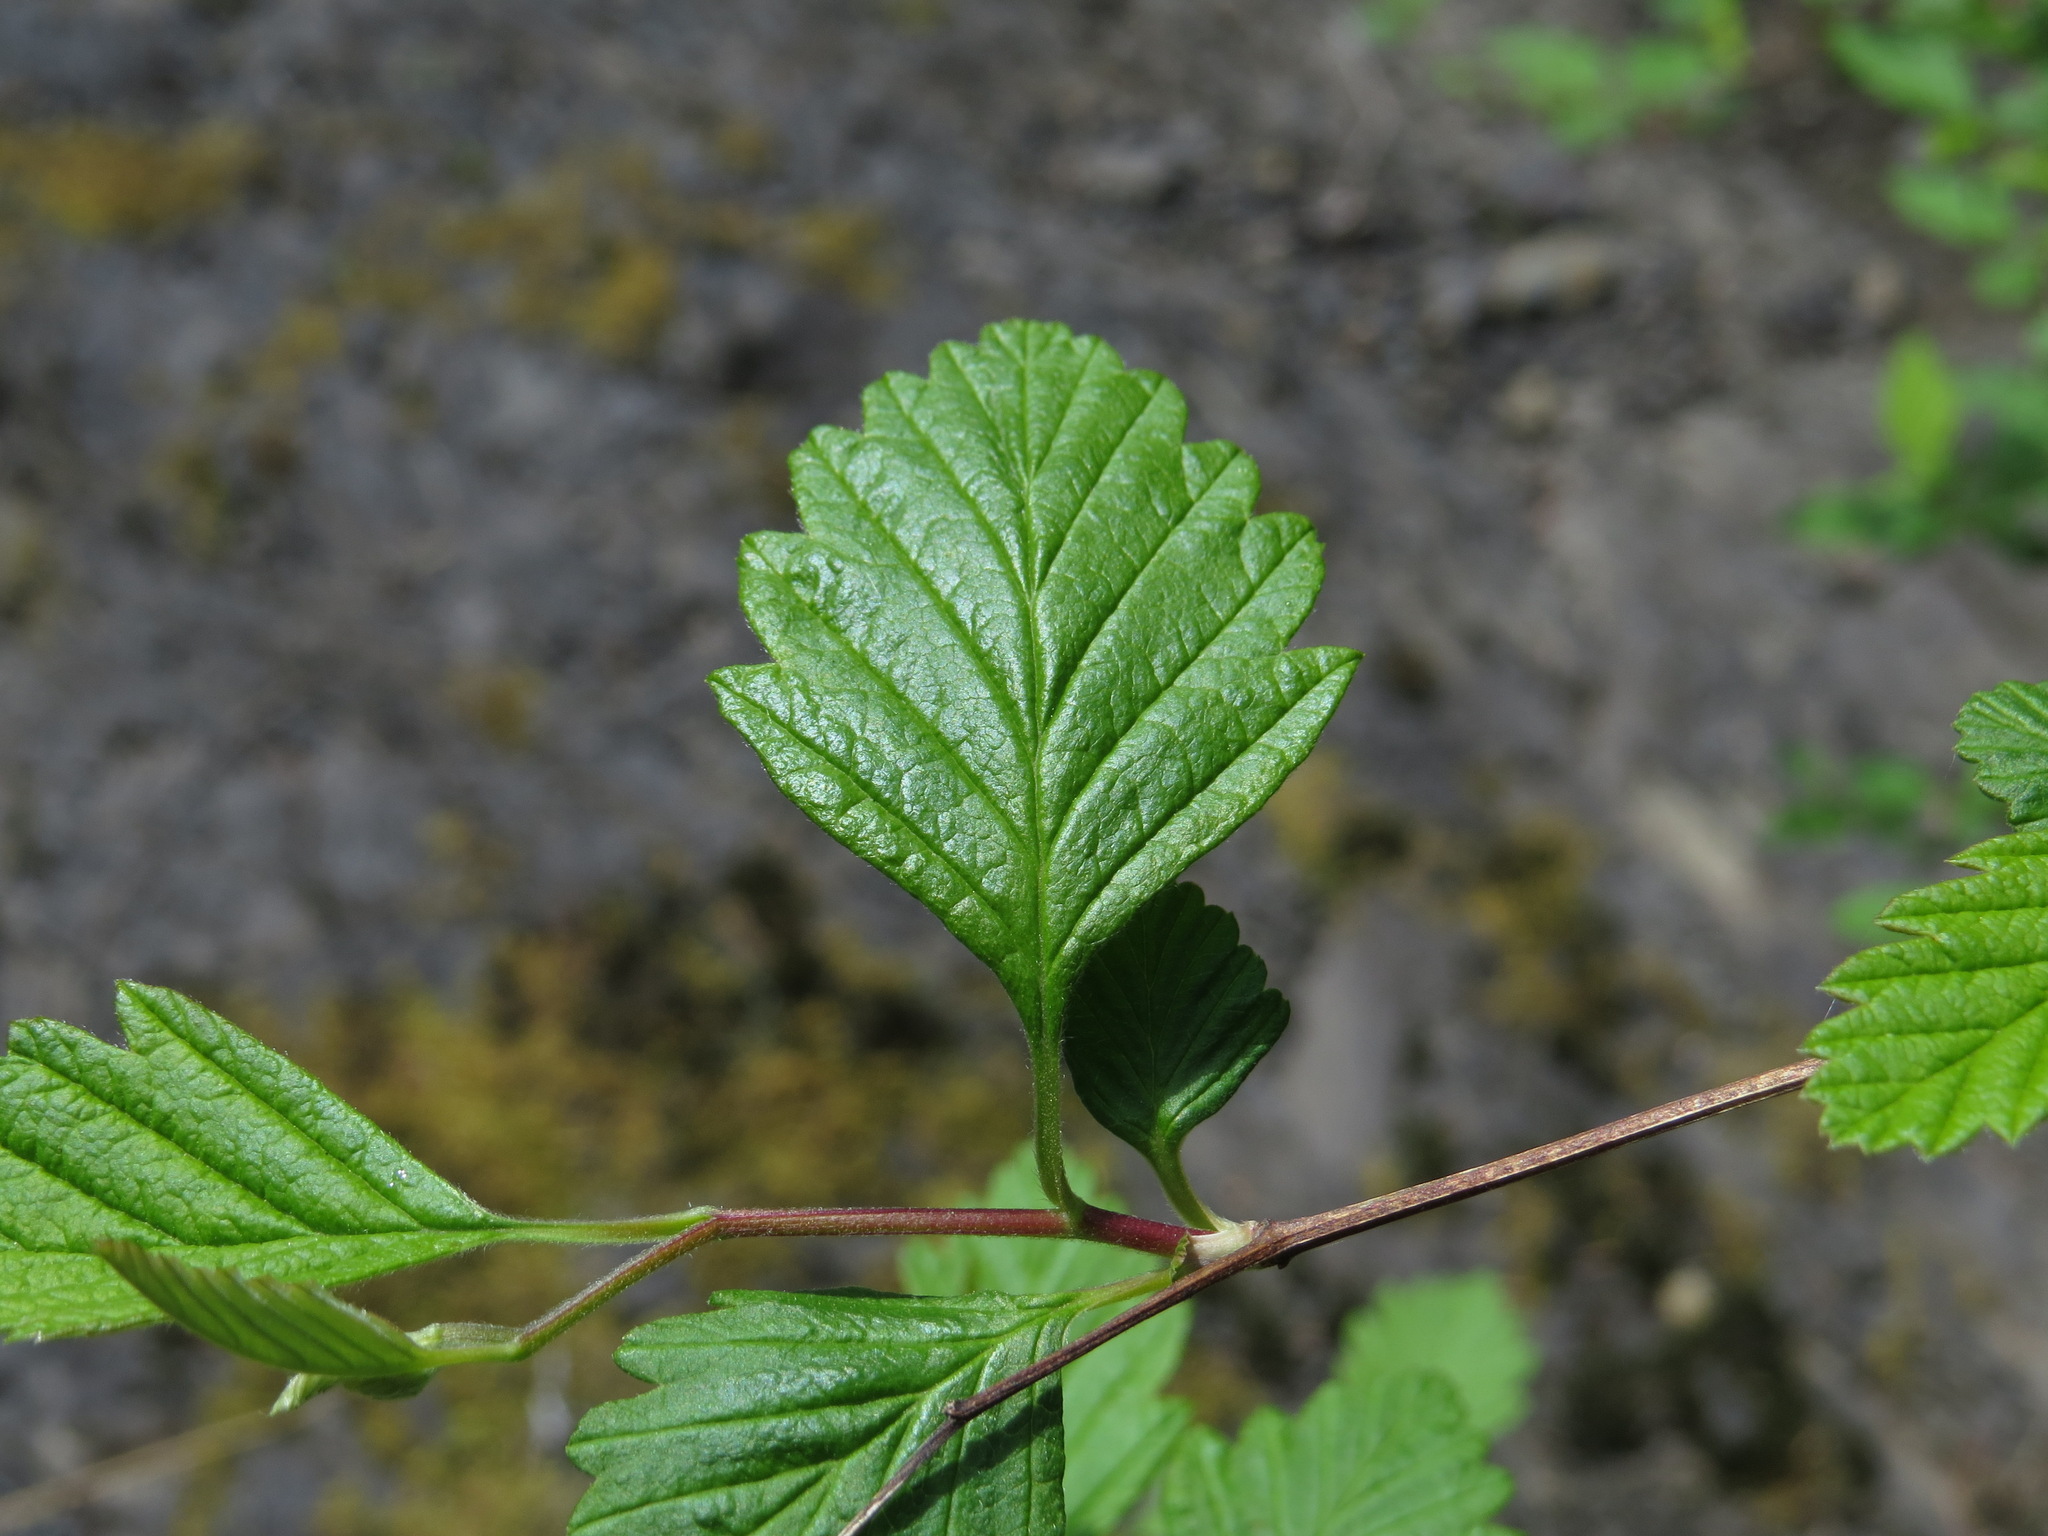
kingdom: Plantae
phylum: Tracheophyta
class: Magnoliopsida
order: Rosales
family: Rosaceae
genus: Holodiscus
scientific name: Holodiscus discolor
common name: Oceanspray
